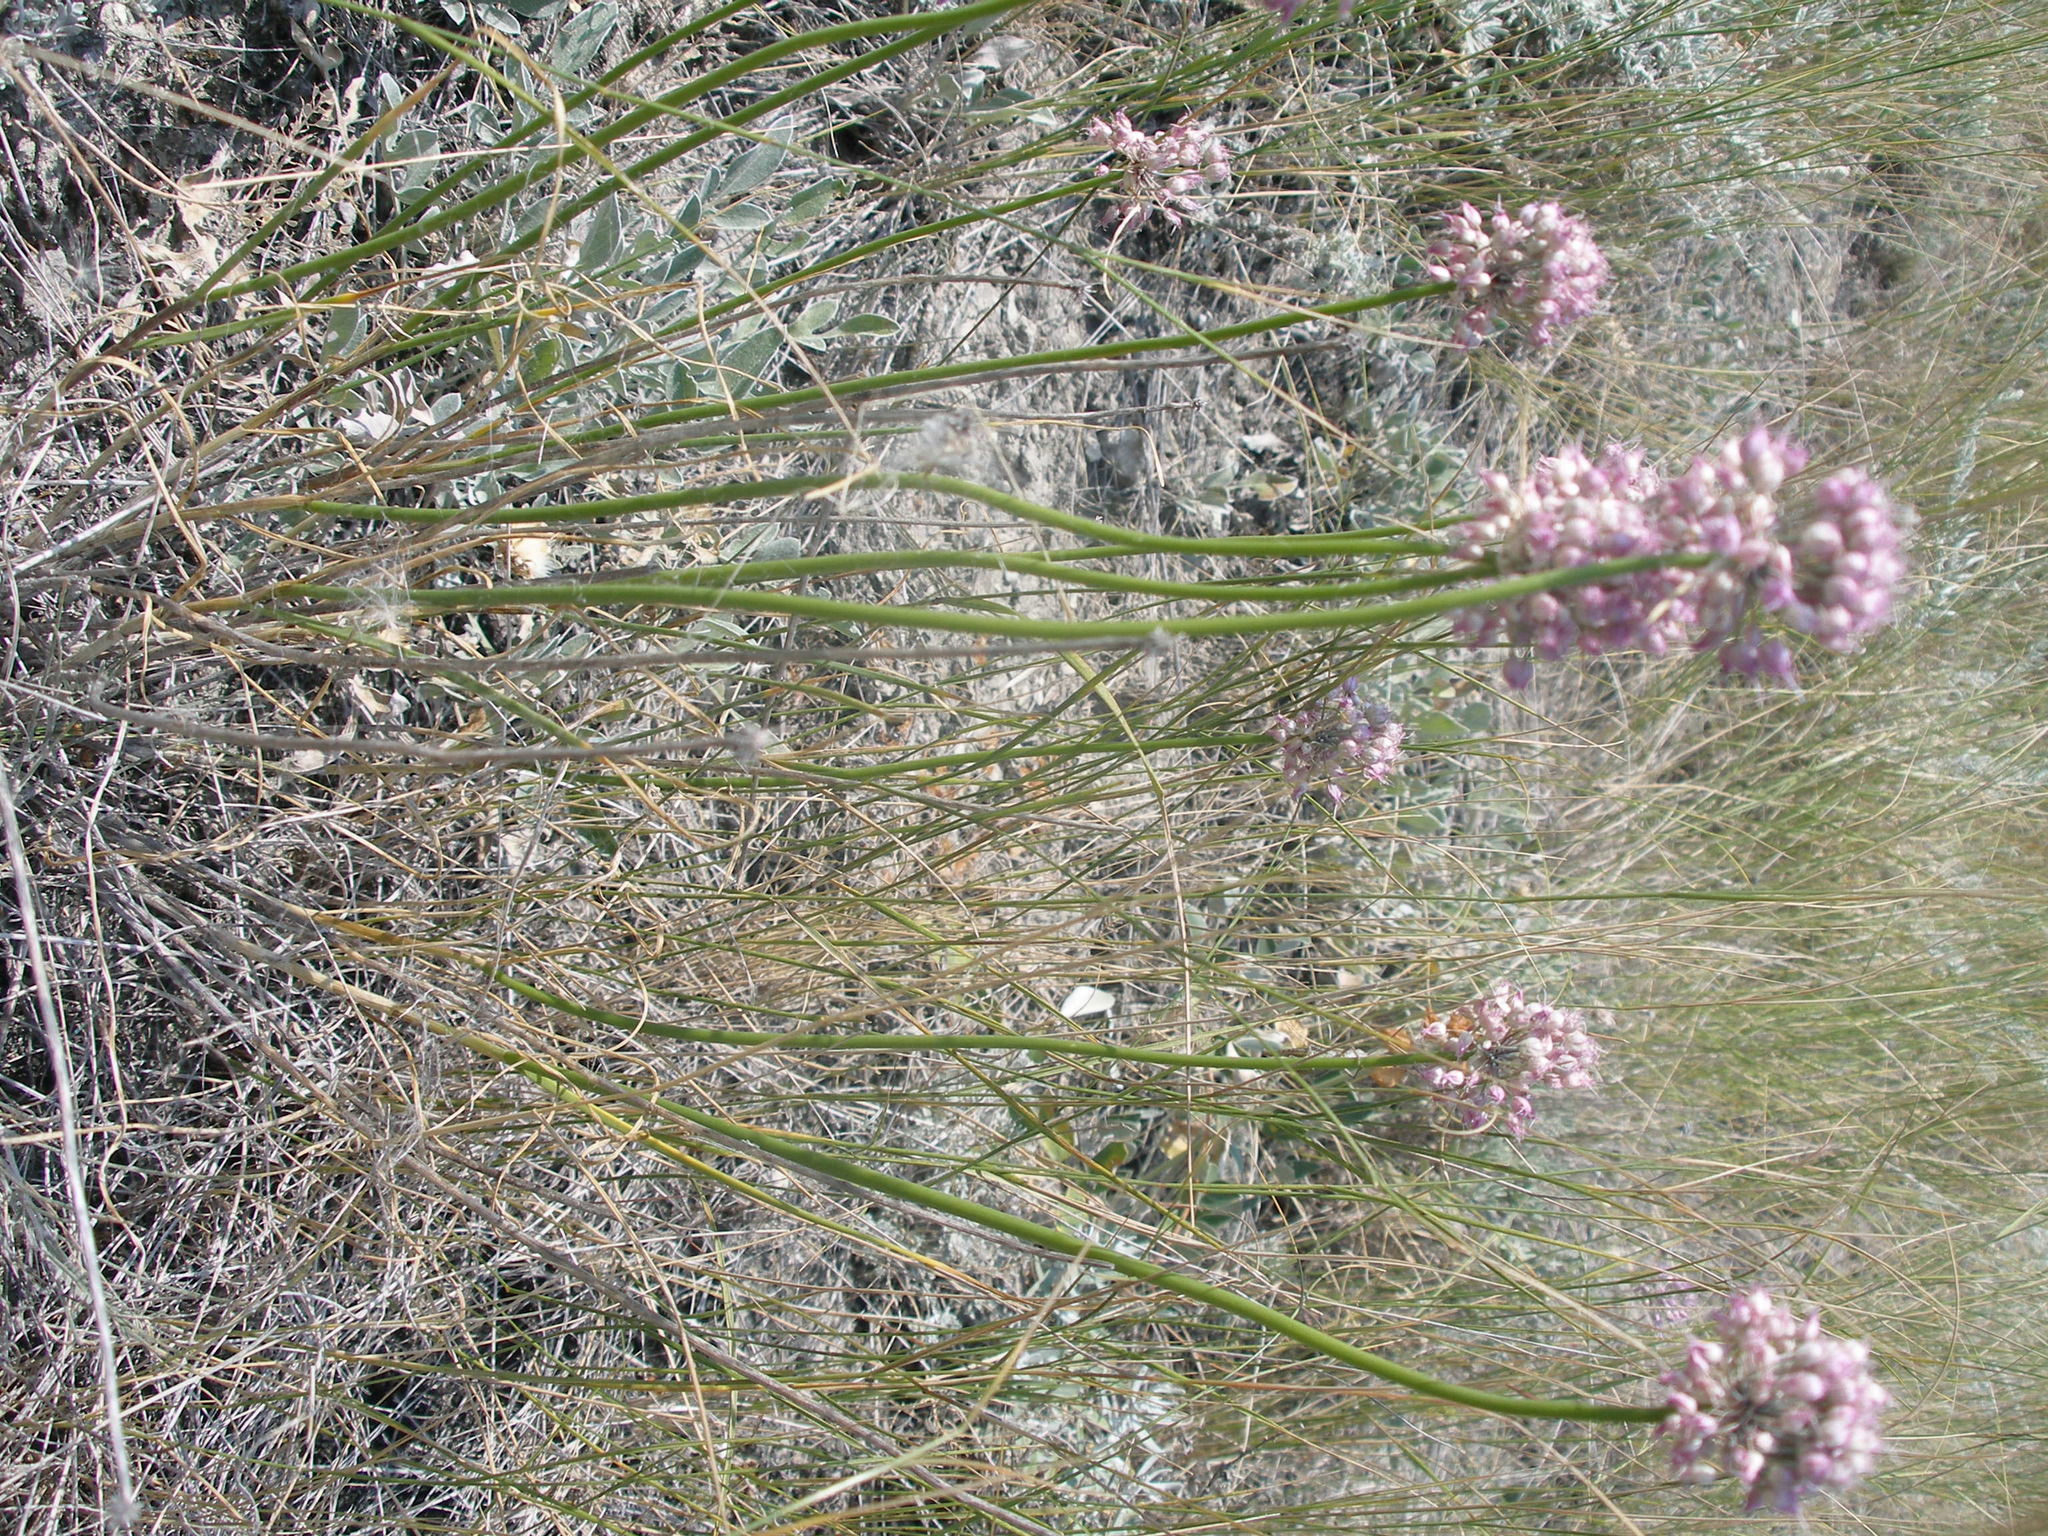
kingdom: Plantae
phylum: Tracheophyta
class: Liliopsida
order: Asparagales
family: Amaryllidaceae
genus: Allium
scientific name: Allium lineare
